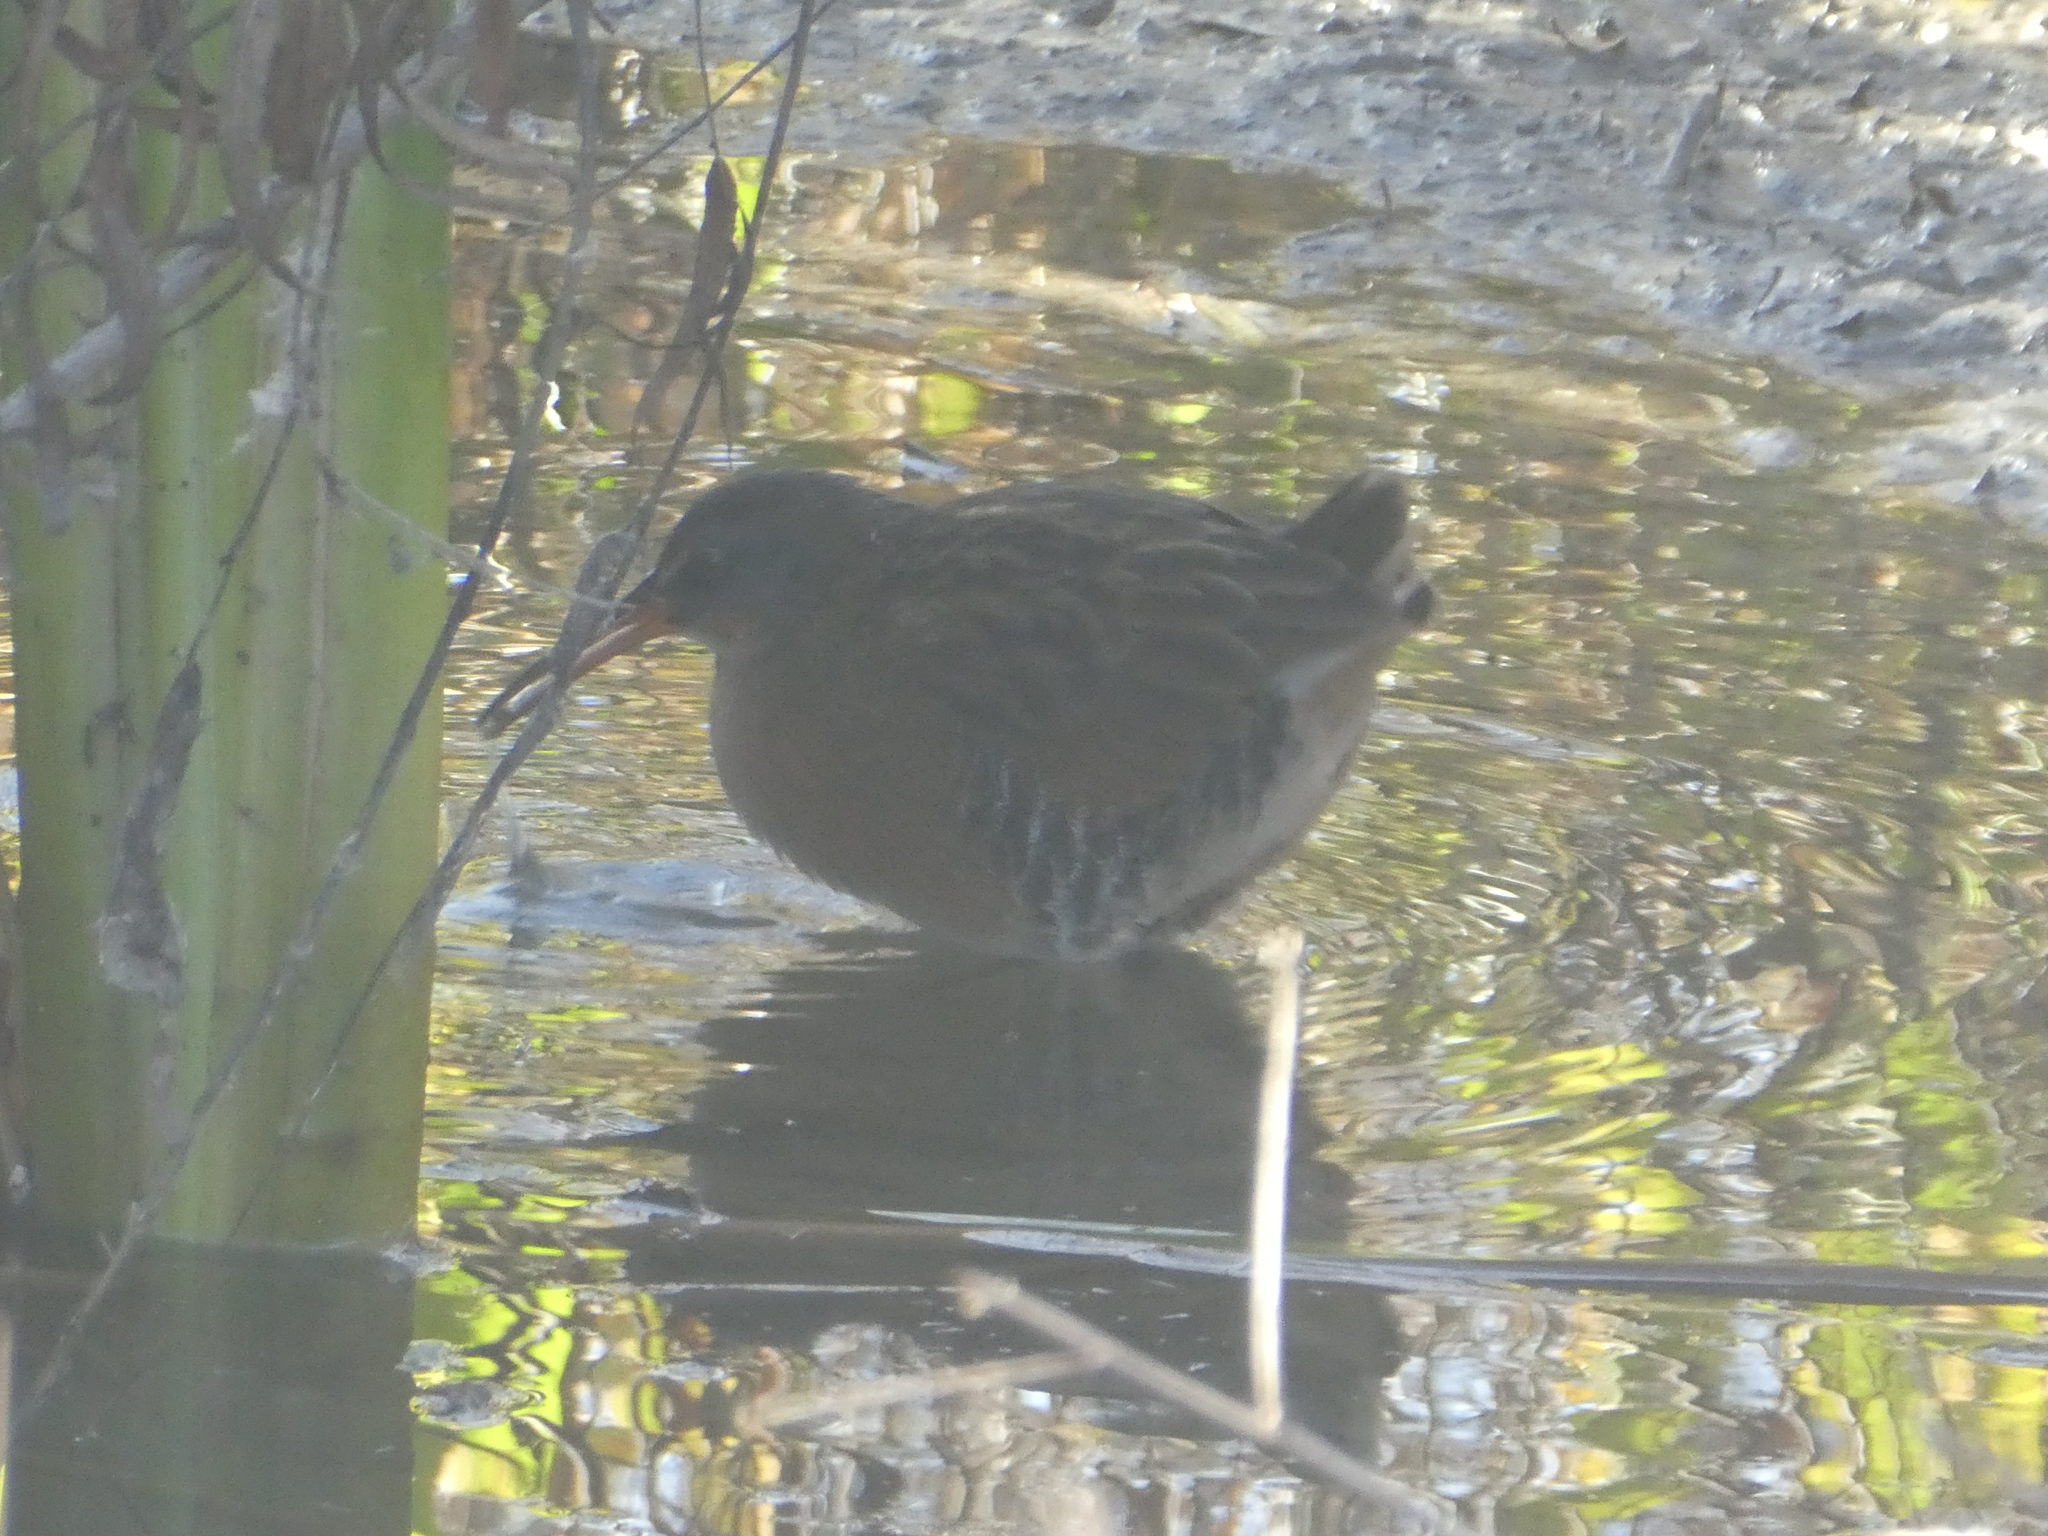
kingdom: Animalia
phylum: Chordata
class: Aves
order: Gruiformes
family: Rallidae
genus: Rallus
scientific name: Rallus limicola
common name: Virginia rail
